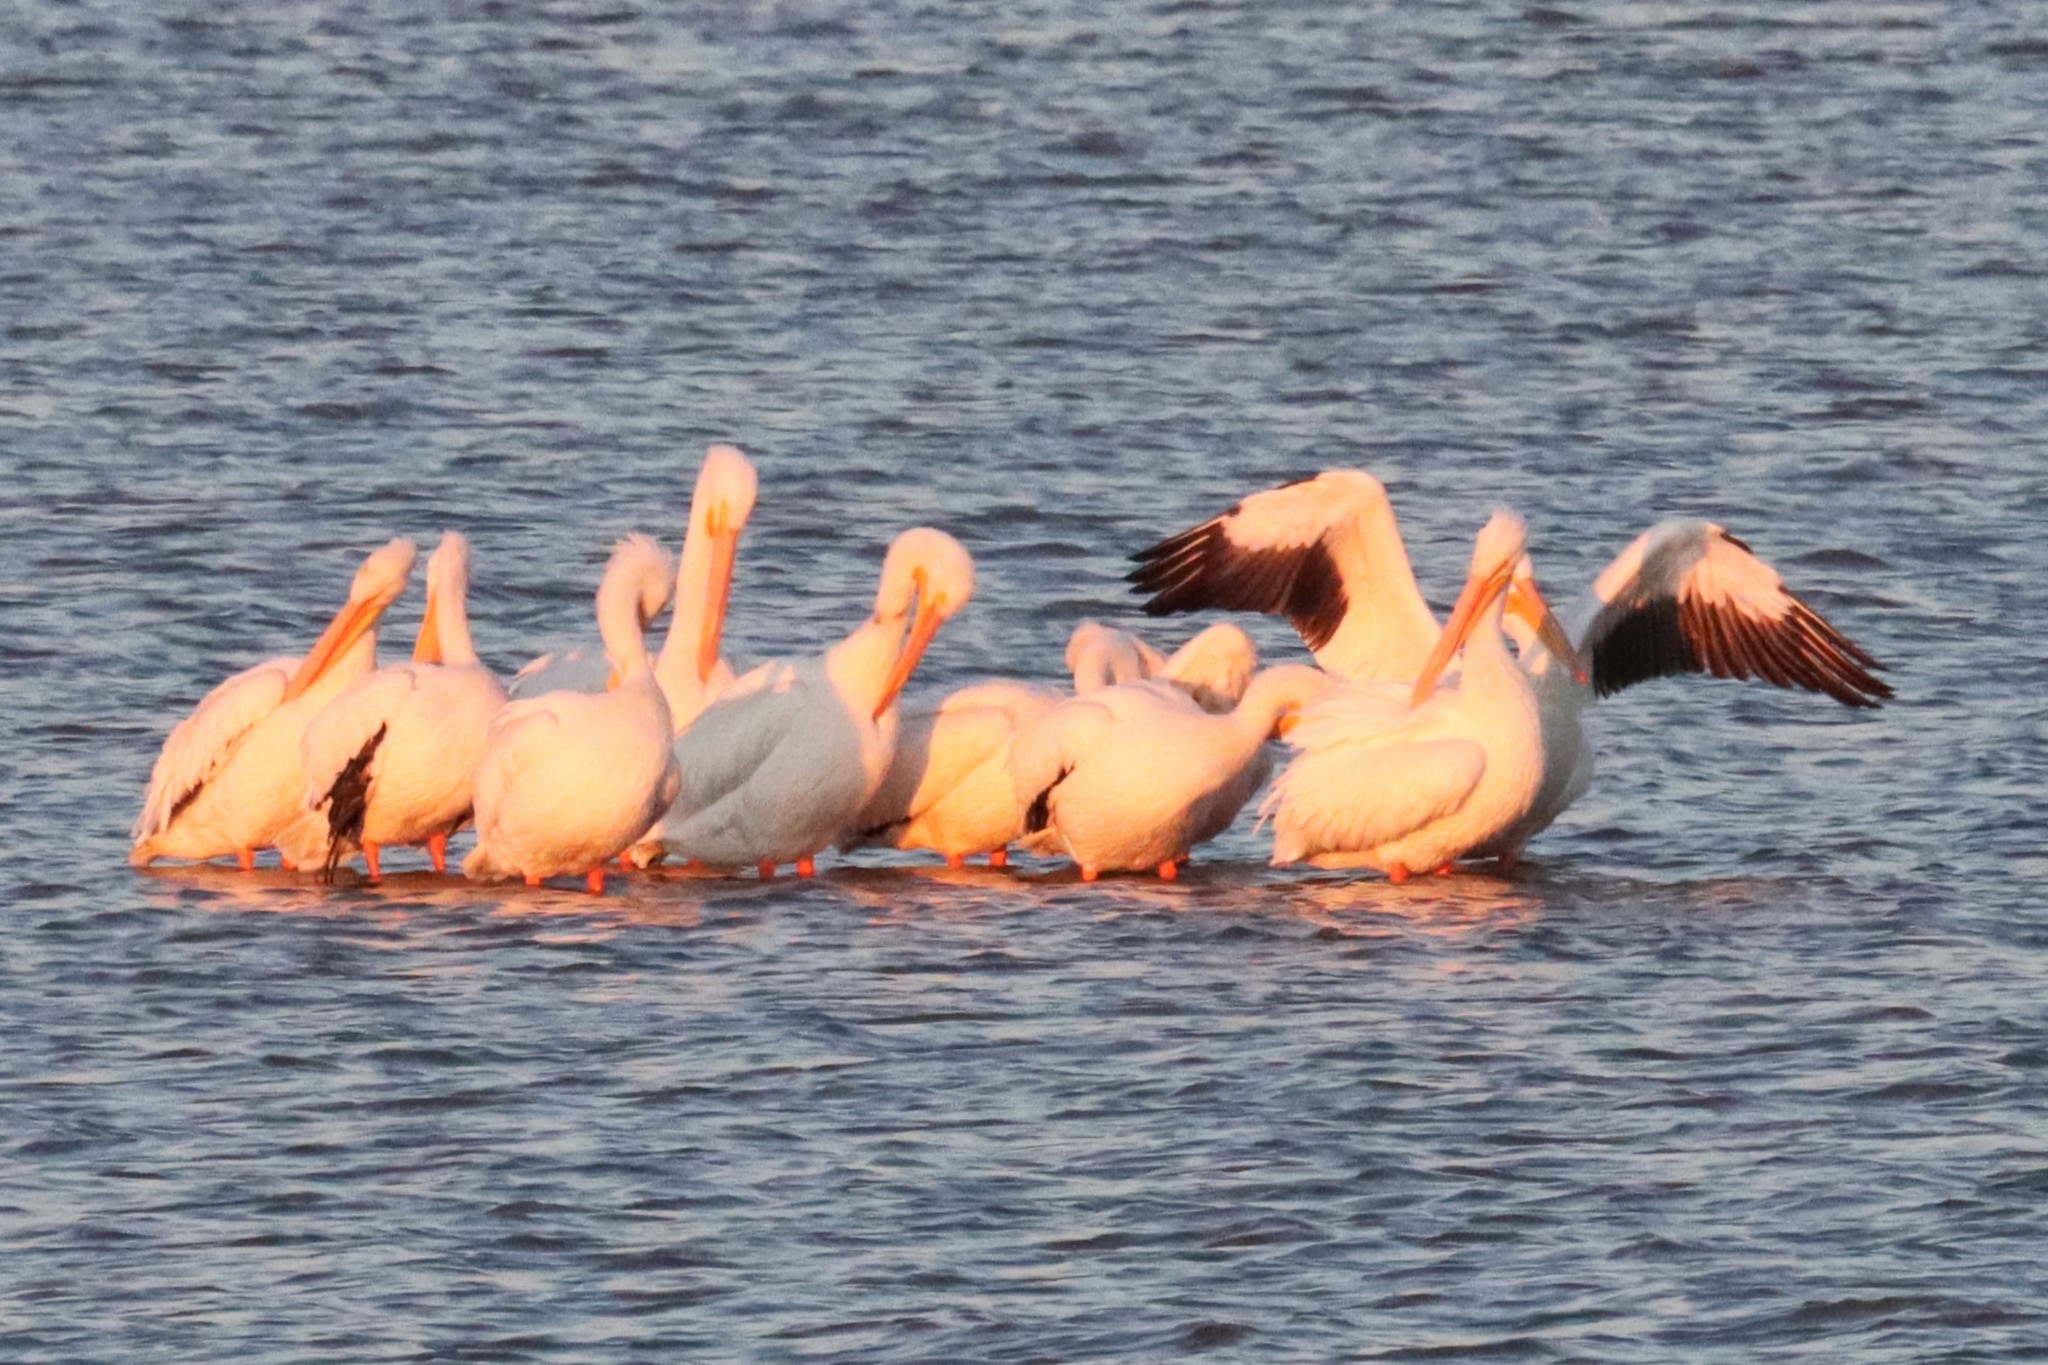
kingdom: Animalia
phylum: Chordata
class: Aves
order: Pelecaniformes
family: Pelecanidae
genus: Pelecanus
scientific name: Pelecanus erythrorhynchos
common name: American white pelican
